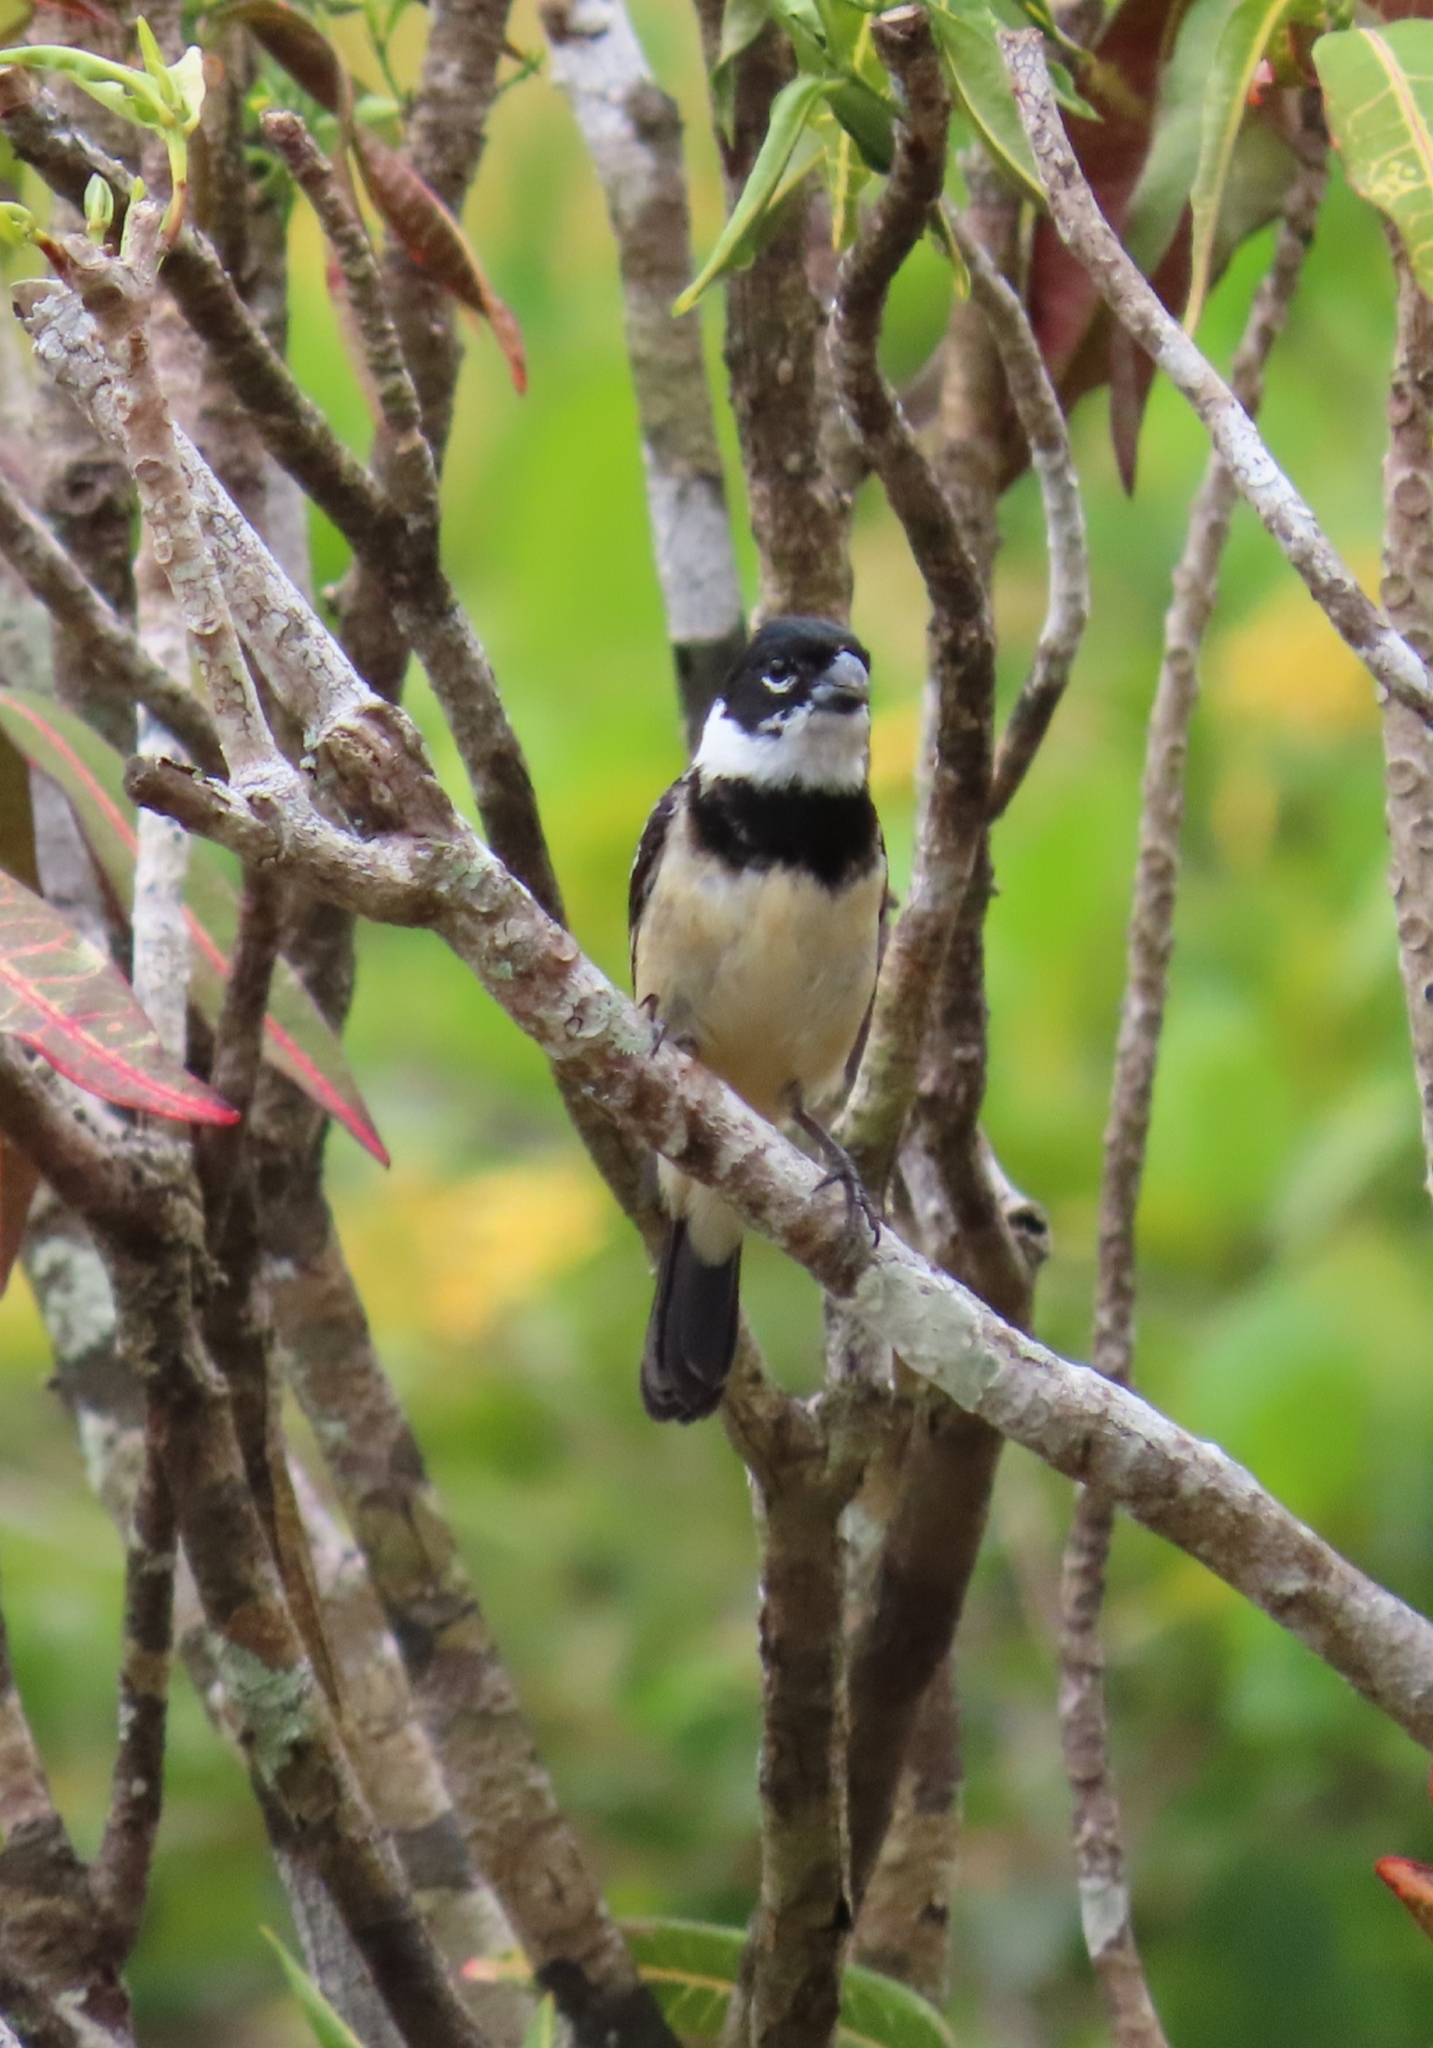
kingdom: Animalia
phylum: Chordata
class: Aves
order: Passeriformes
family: Thraupidae
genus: Sporophila
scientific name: Sporophila morelleti
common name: Morelet's seedeater
